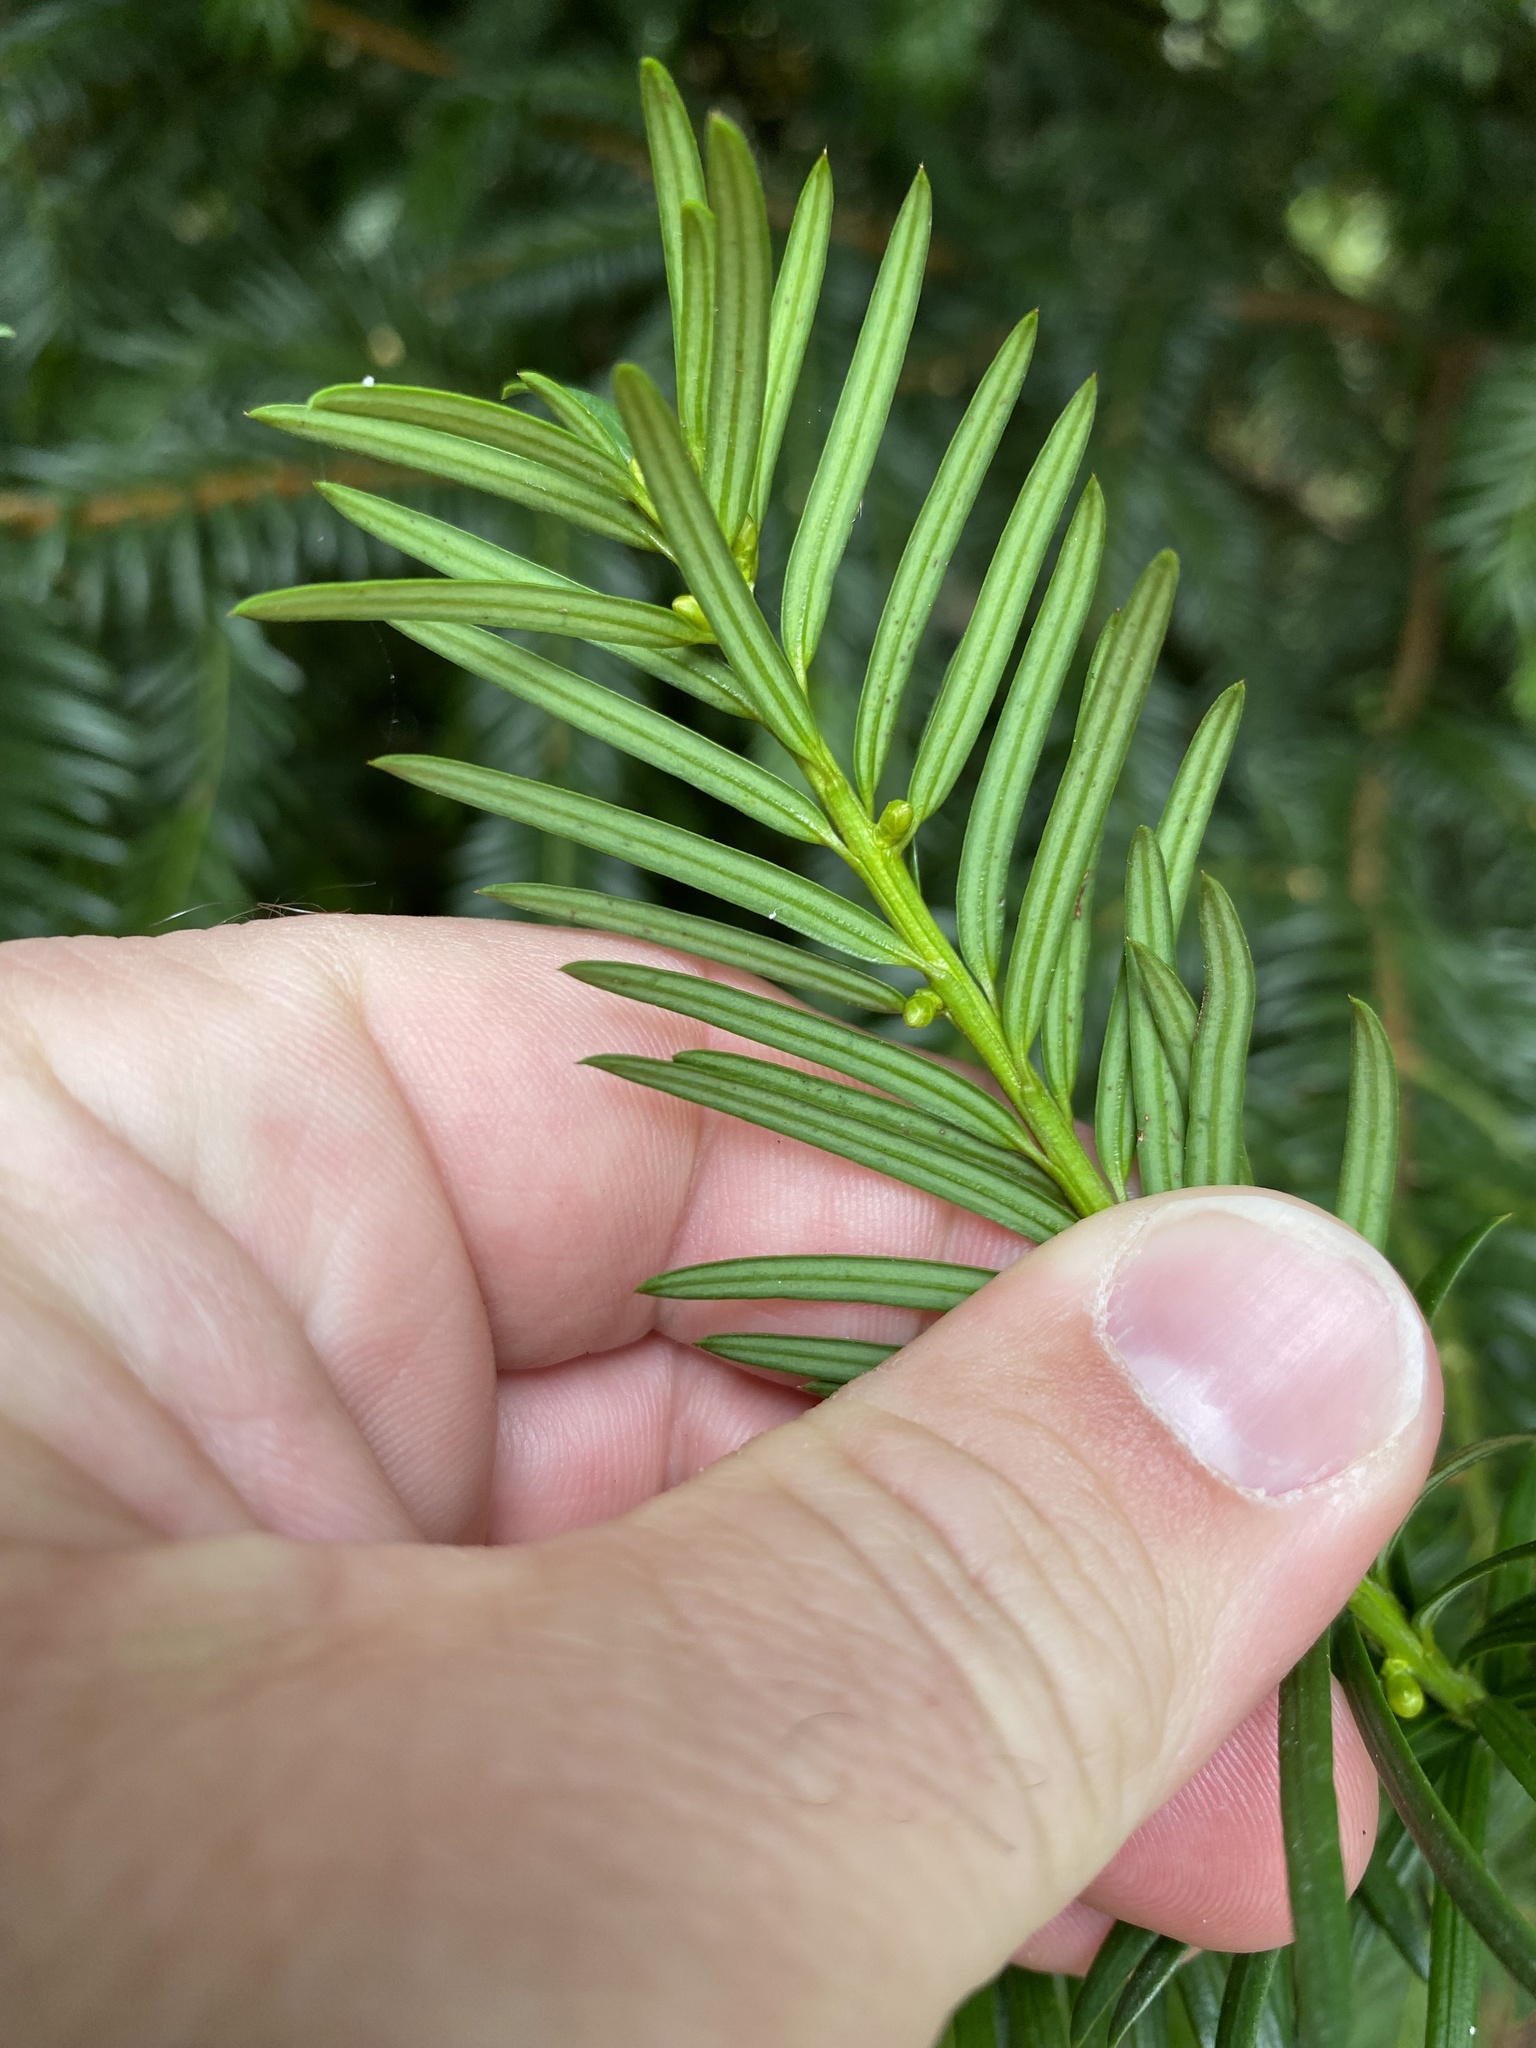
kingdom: Plantae
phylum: Tracheophyta
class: Pinopsida
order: Pinales
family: Taxaceae
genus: Taxus
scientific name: Taxus baccata
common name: Yew
